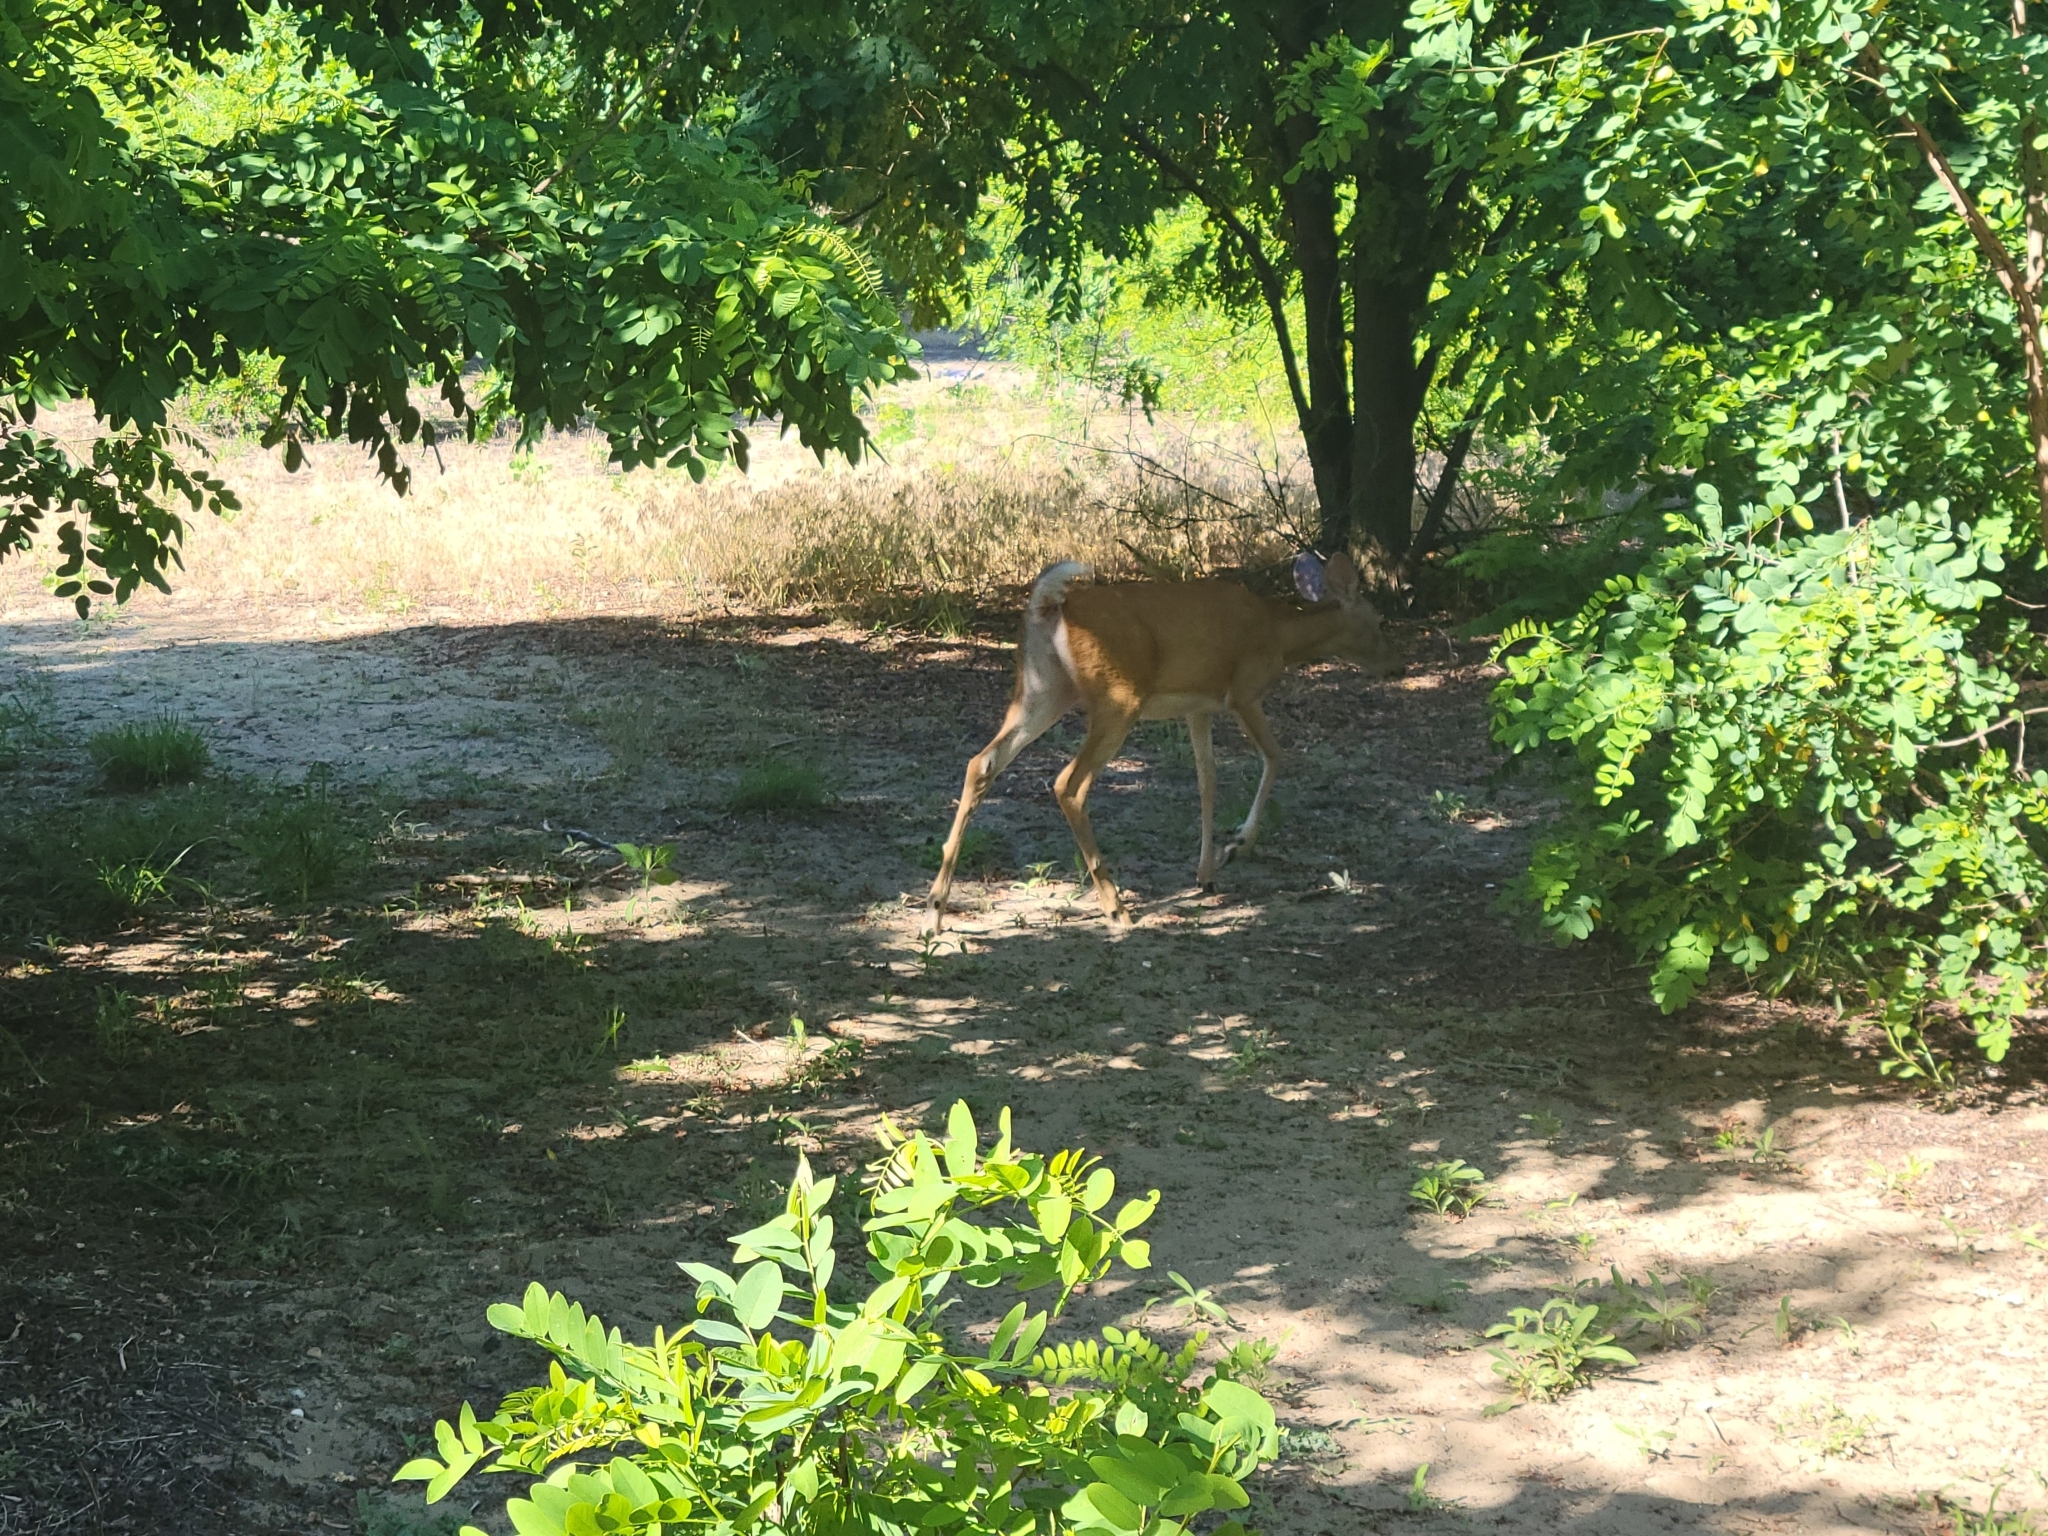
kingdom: Animalia
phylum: Chordata
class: Mammalia
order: Artiodactyla
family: Cervidae
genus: Odocoileus
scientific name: Odocoileus virginianus
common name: White-tailed deer
